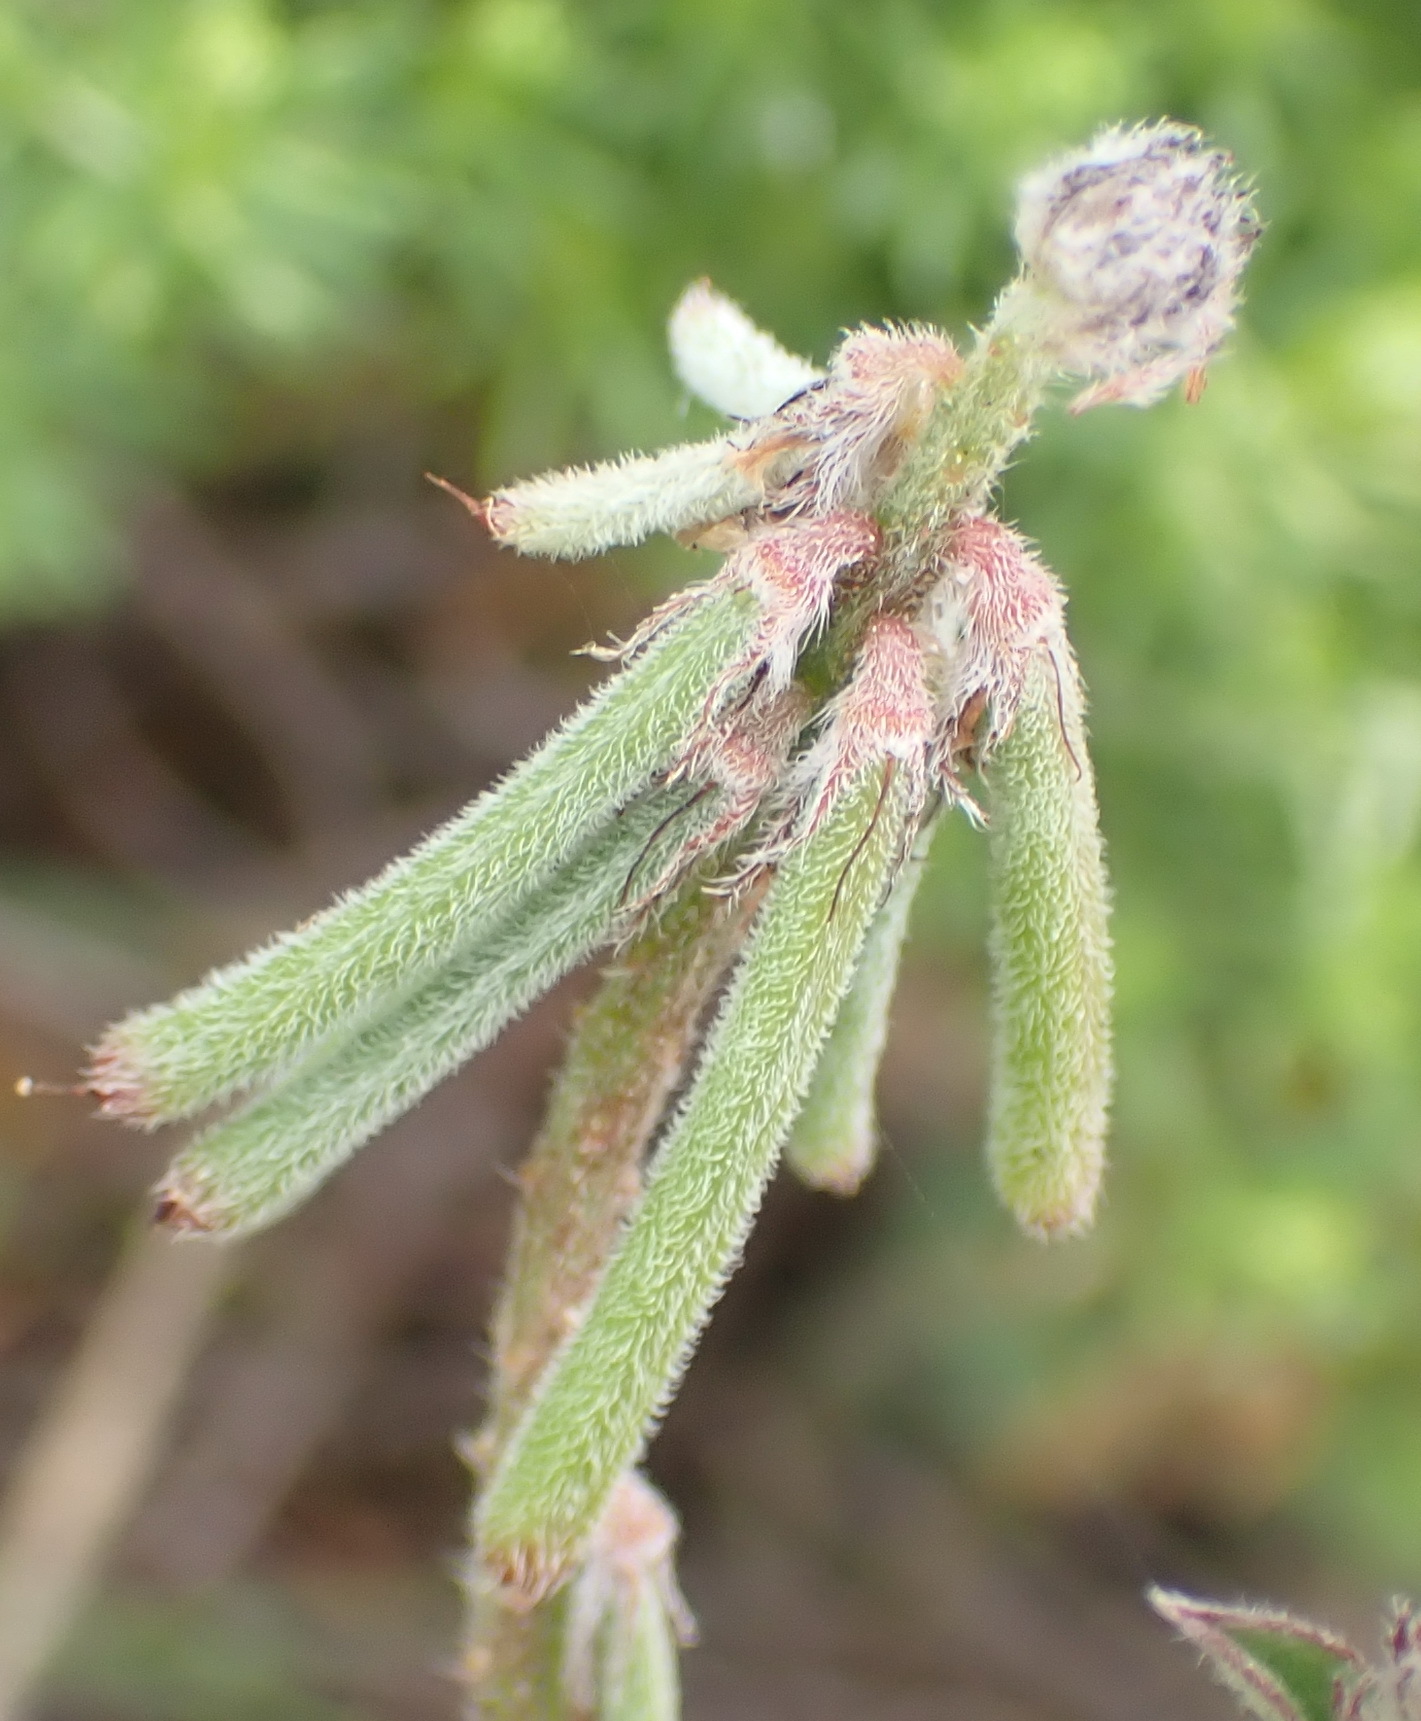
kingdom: Plantae
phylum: Tracheophyta
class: Magnoliopsida
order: Fabales
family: Fabaceae
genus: Indigofera
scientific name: Indigofera heterophylla
